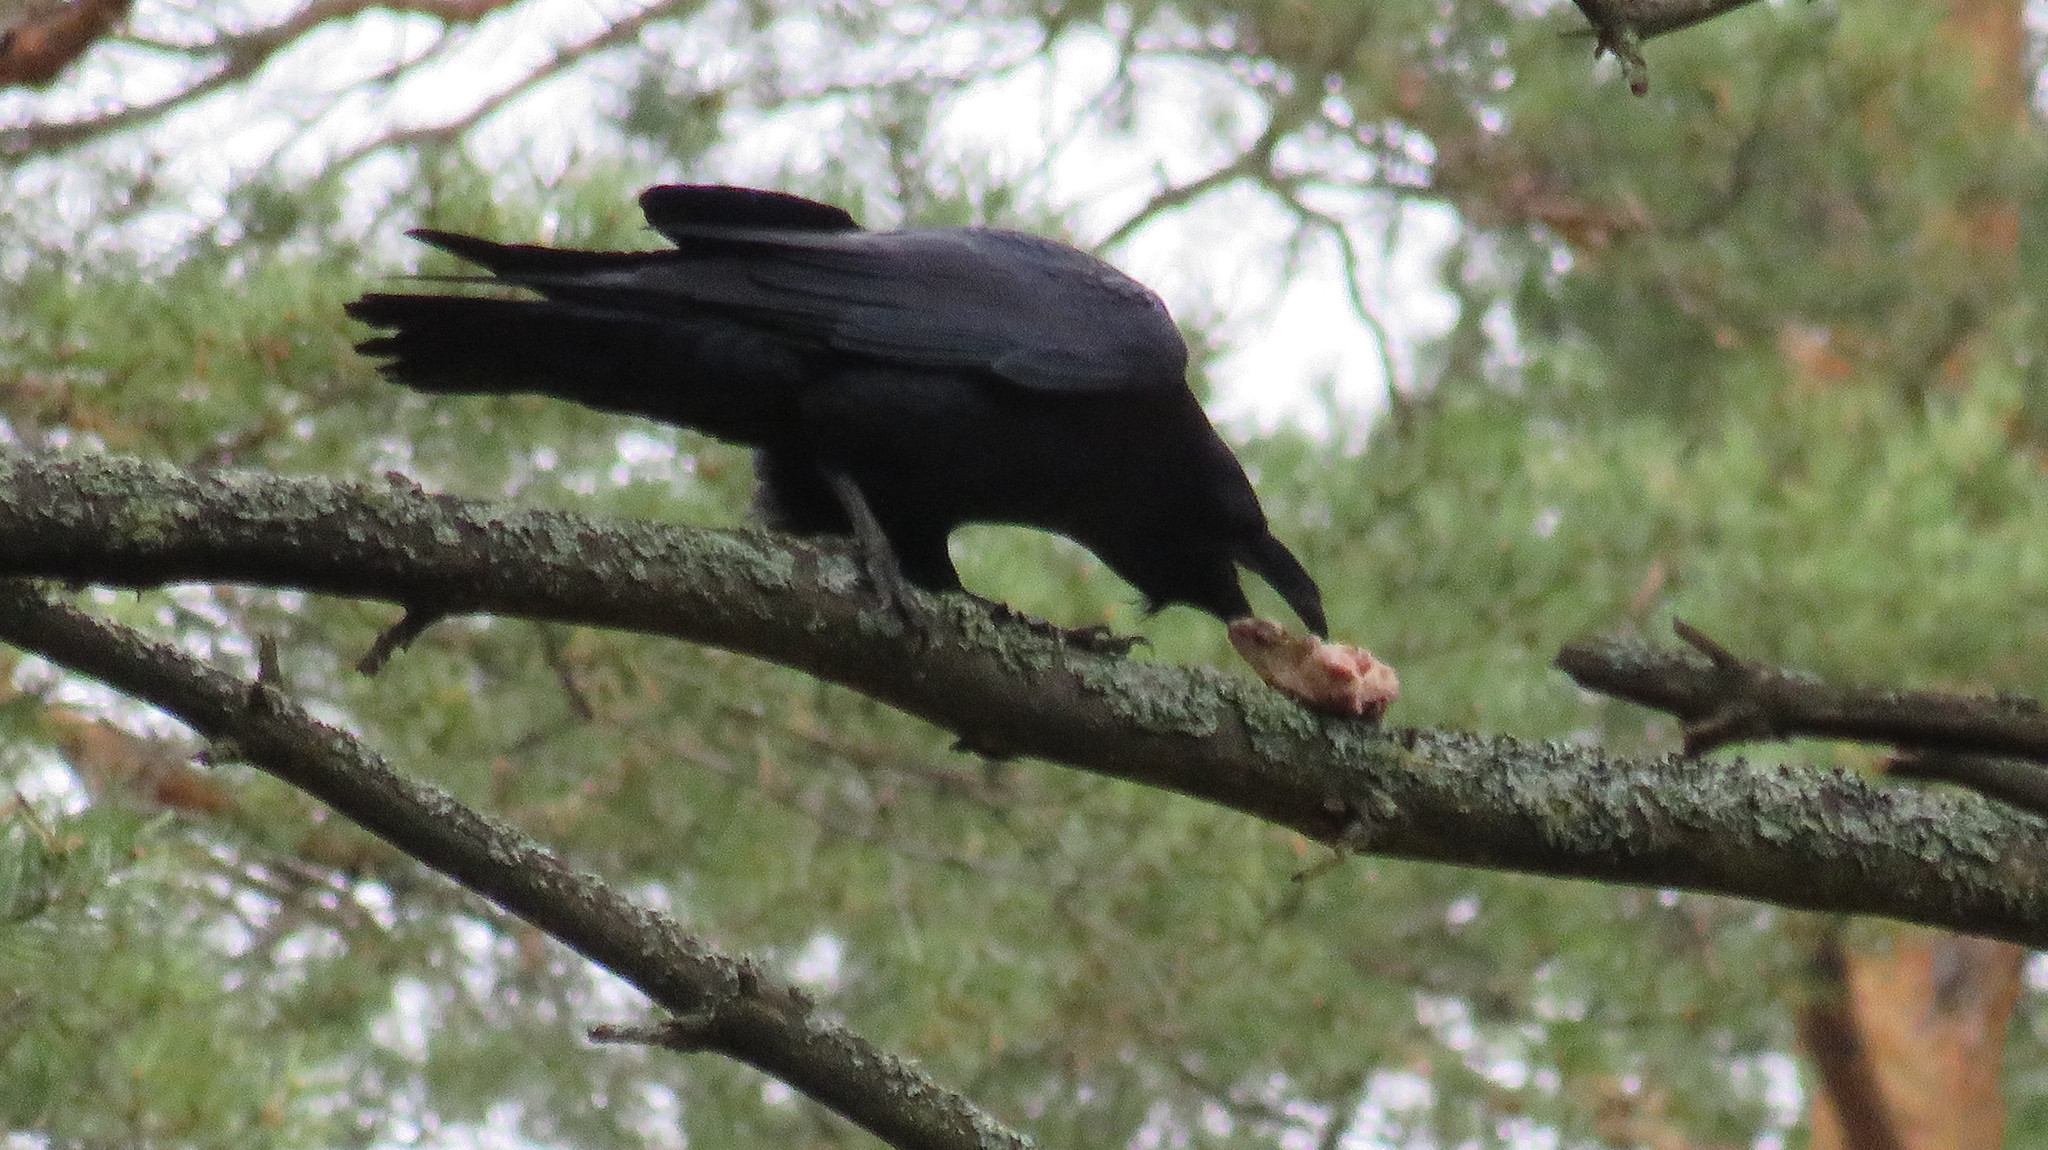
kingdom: Animalia
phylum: Chordata
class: Aves
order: Passeriformes
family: Corvidae
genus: Corvus
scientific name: Corvus corax
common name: Common raven
